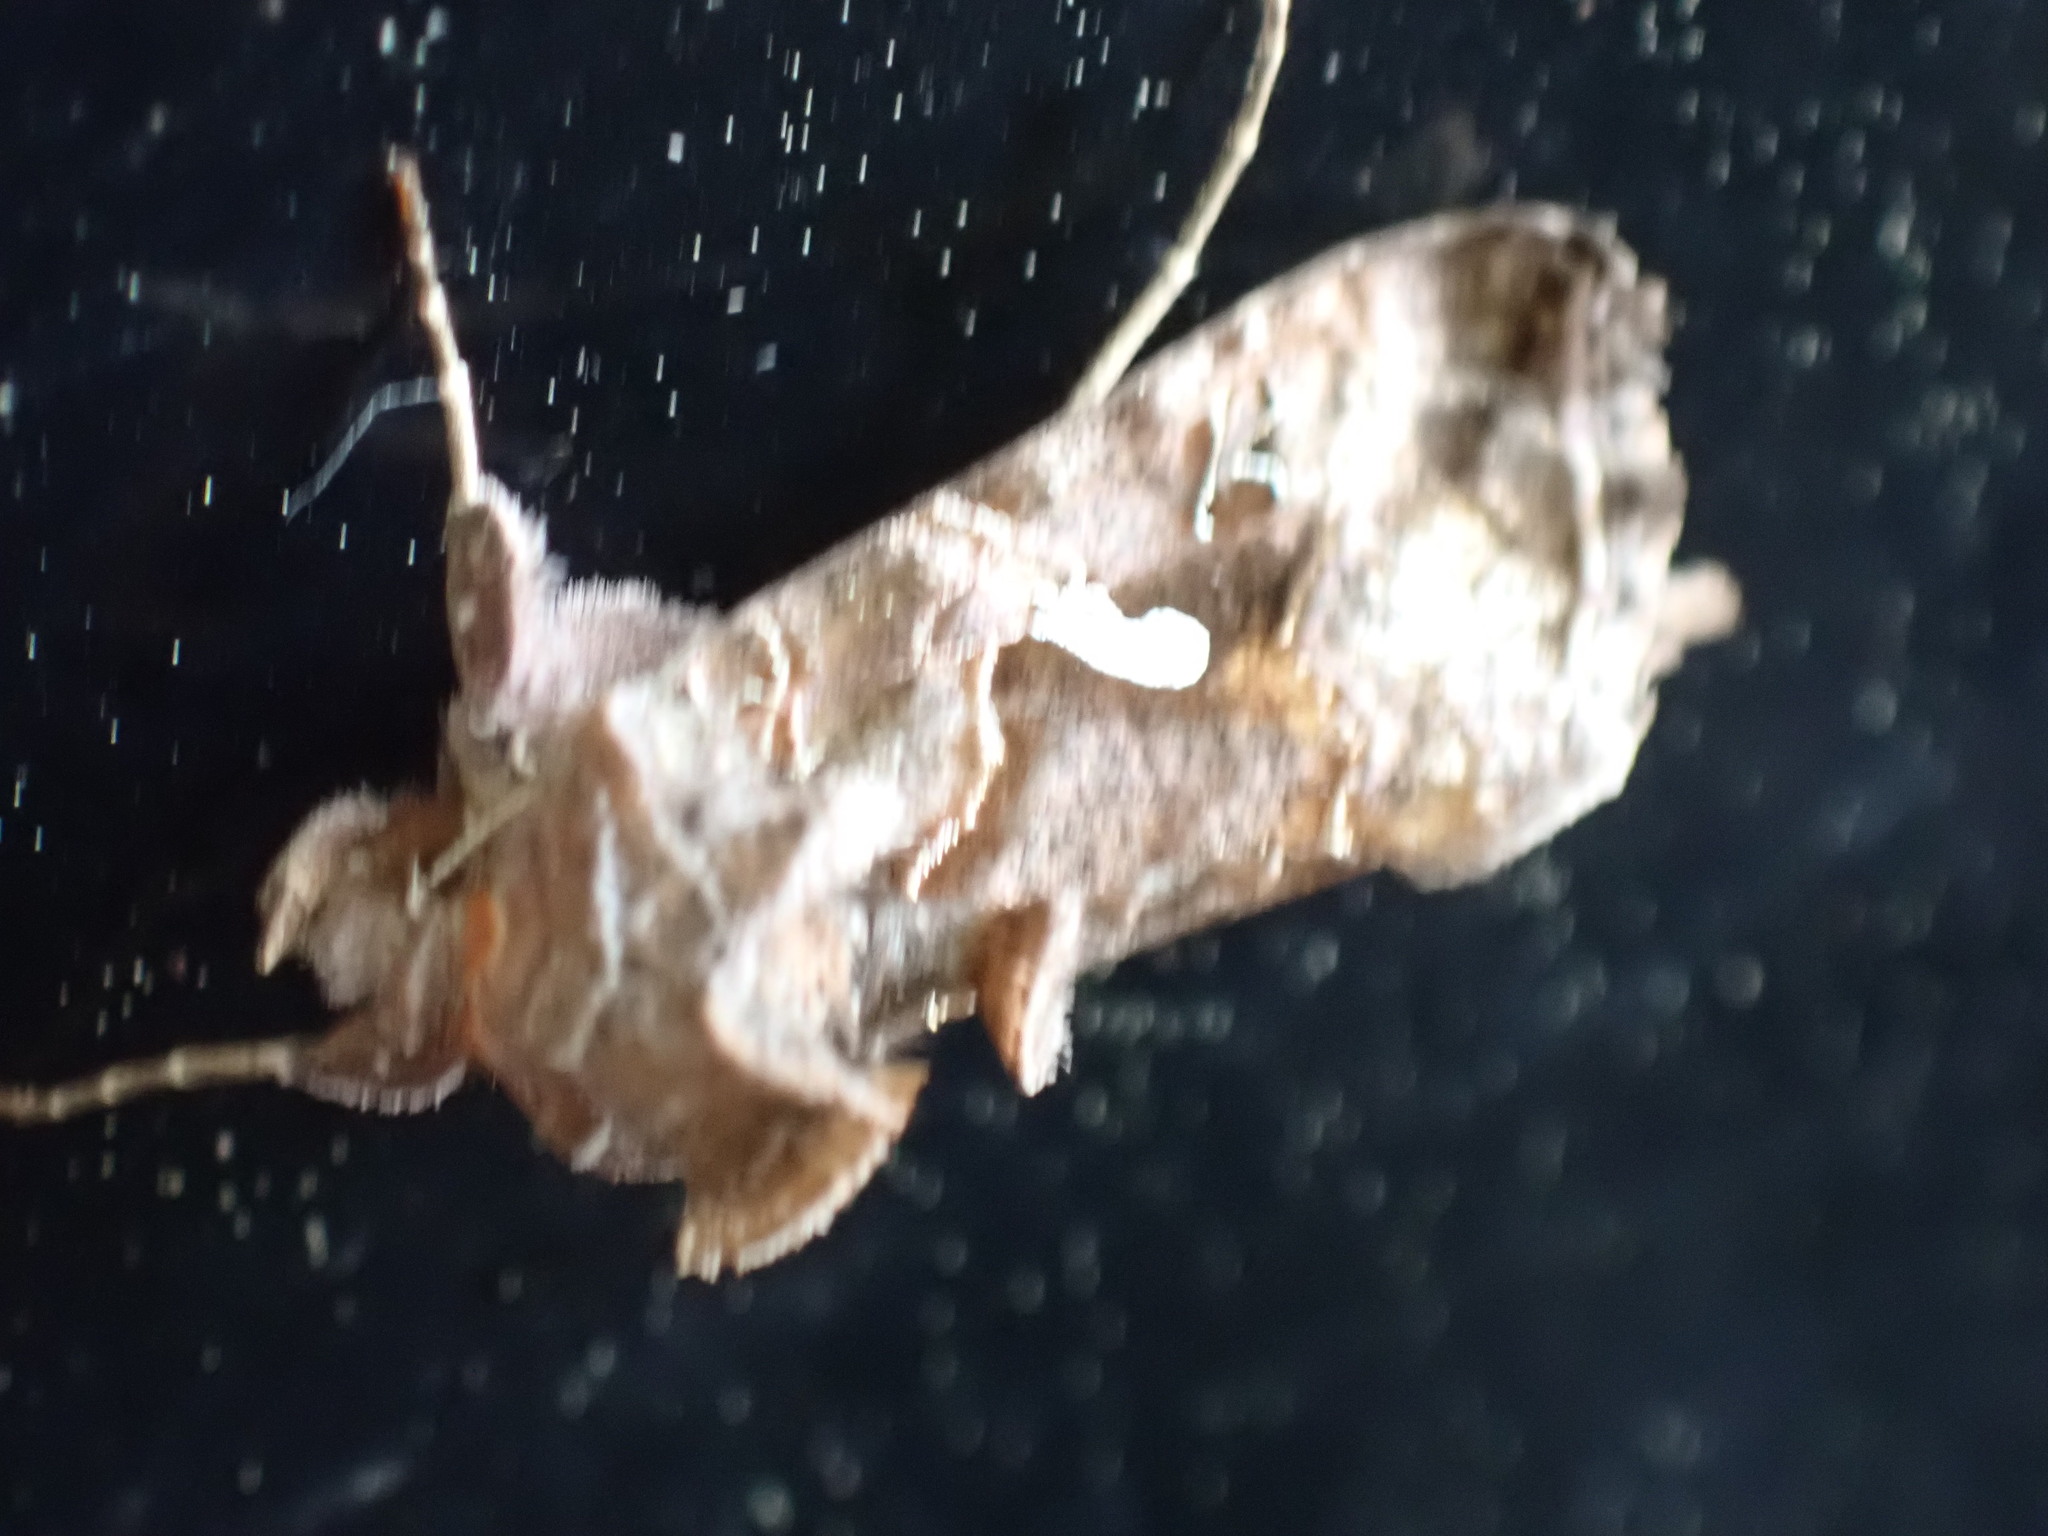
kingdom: Animalia
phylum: Arthropoda
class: Insecta
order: Lepidoptera
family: Noctuidae
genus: Autographa
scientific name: Autographa precationis
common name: Common looper moth
